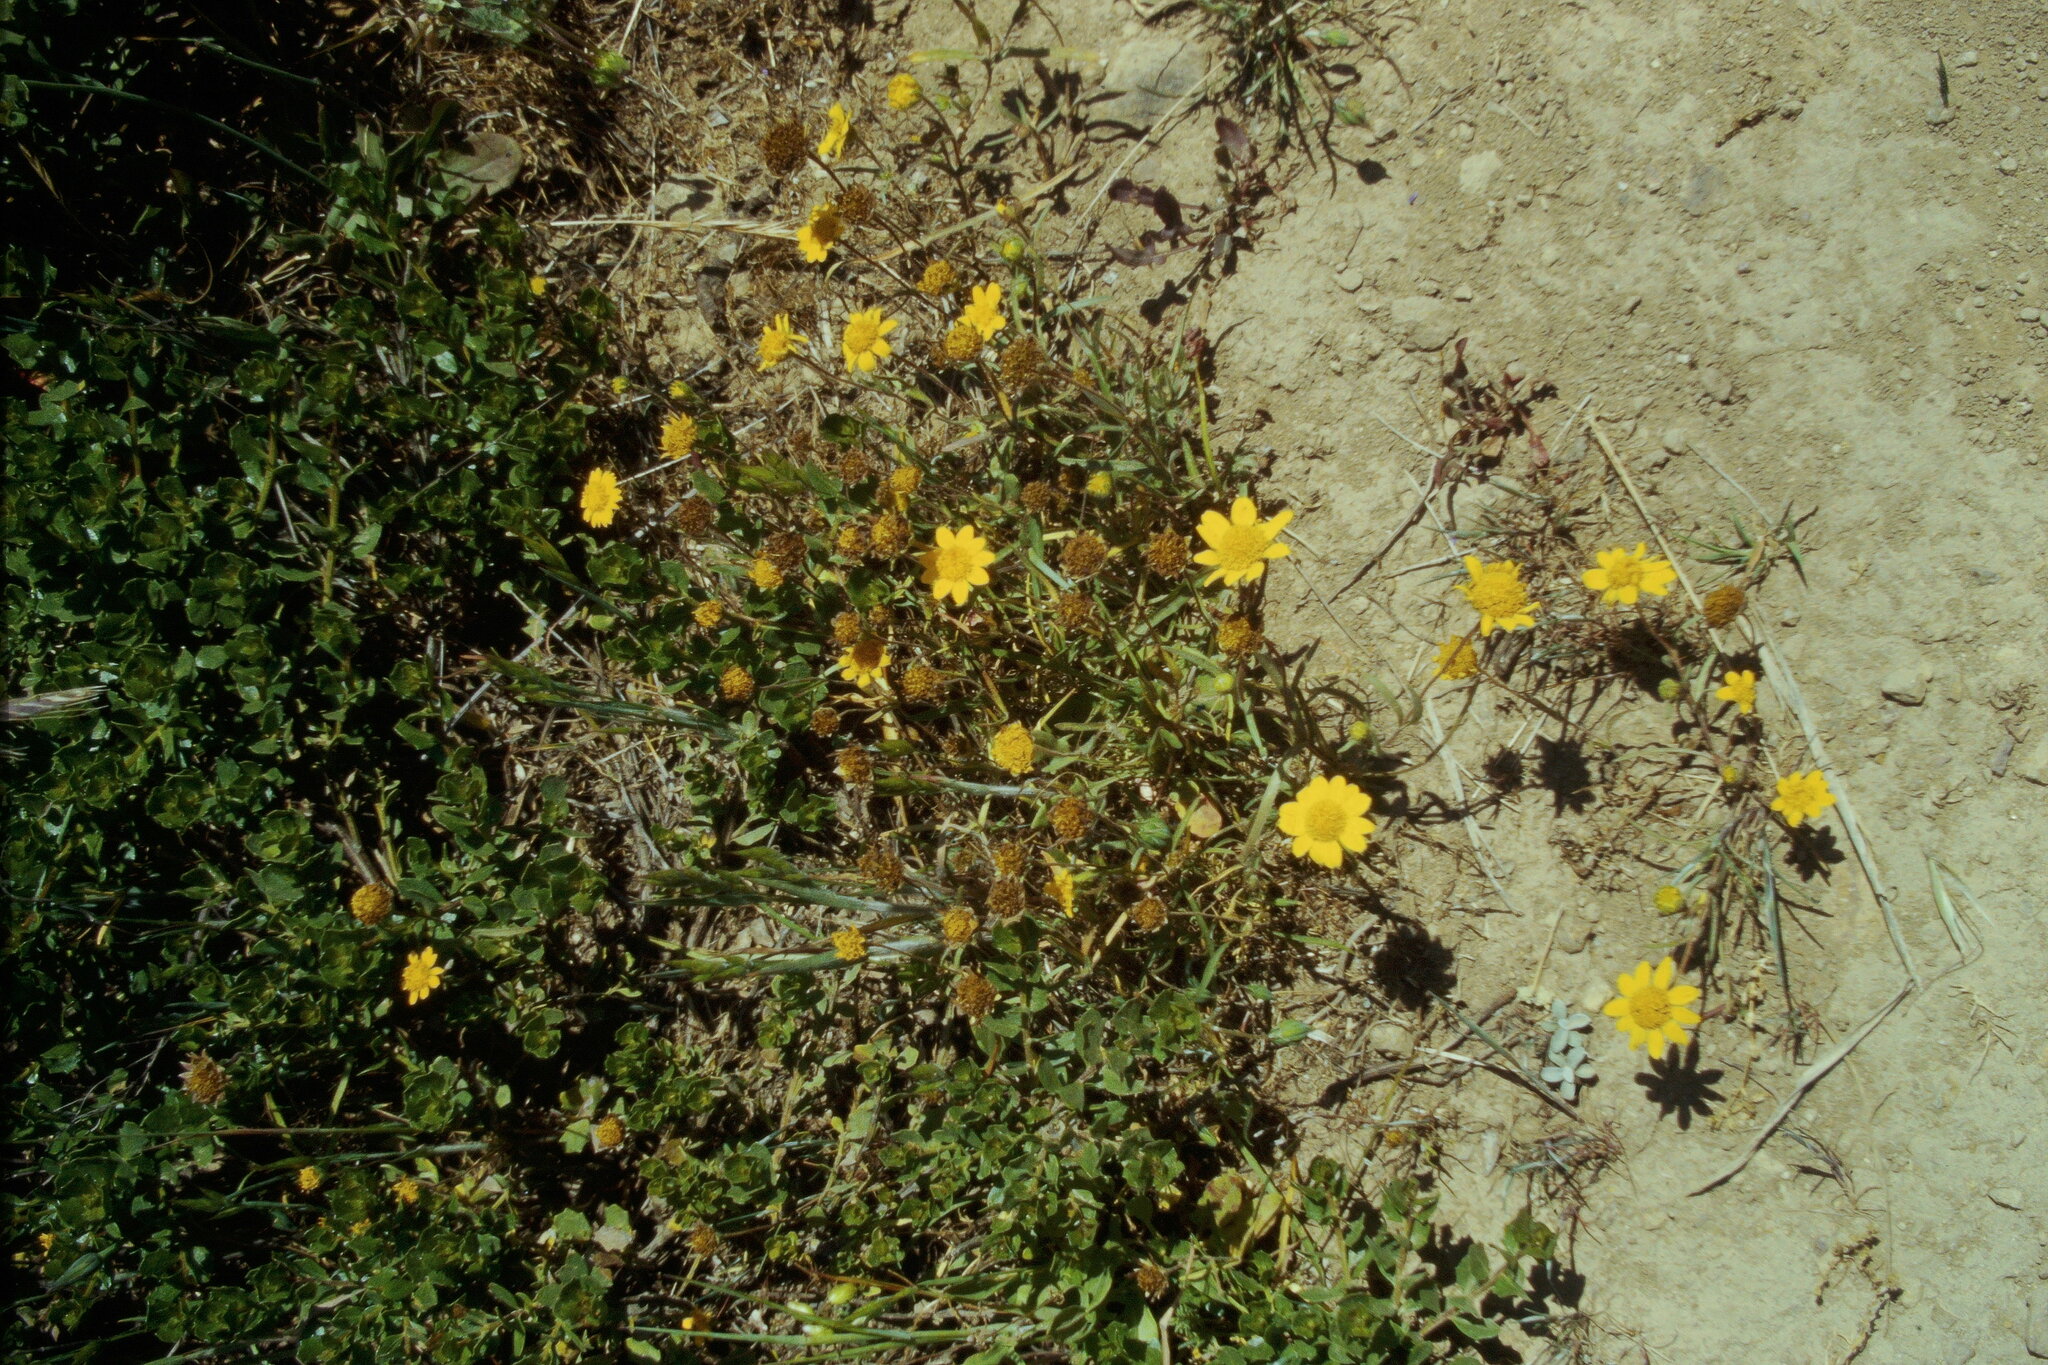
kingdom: Plantae
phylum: Tracheophyta
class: Magnoliopsida
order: Asterales
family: Asteraceae
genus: Lasthenia
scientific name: Lasthenia californica
